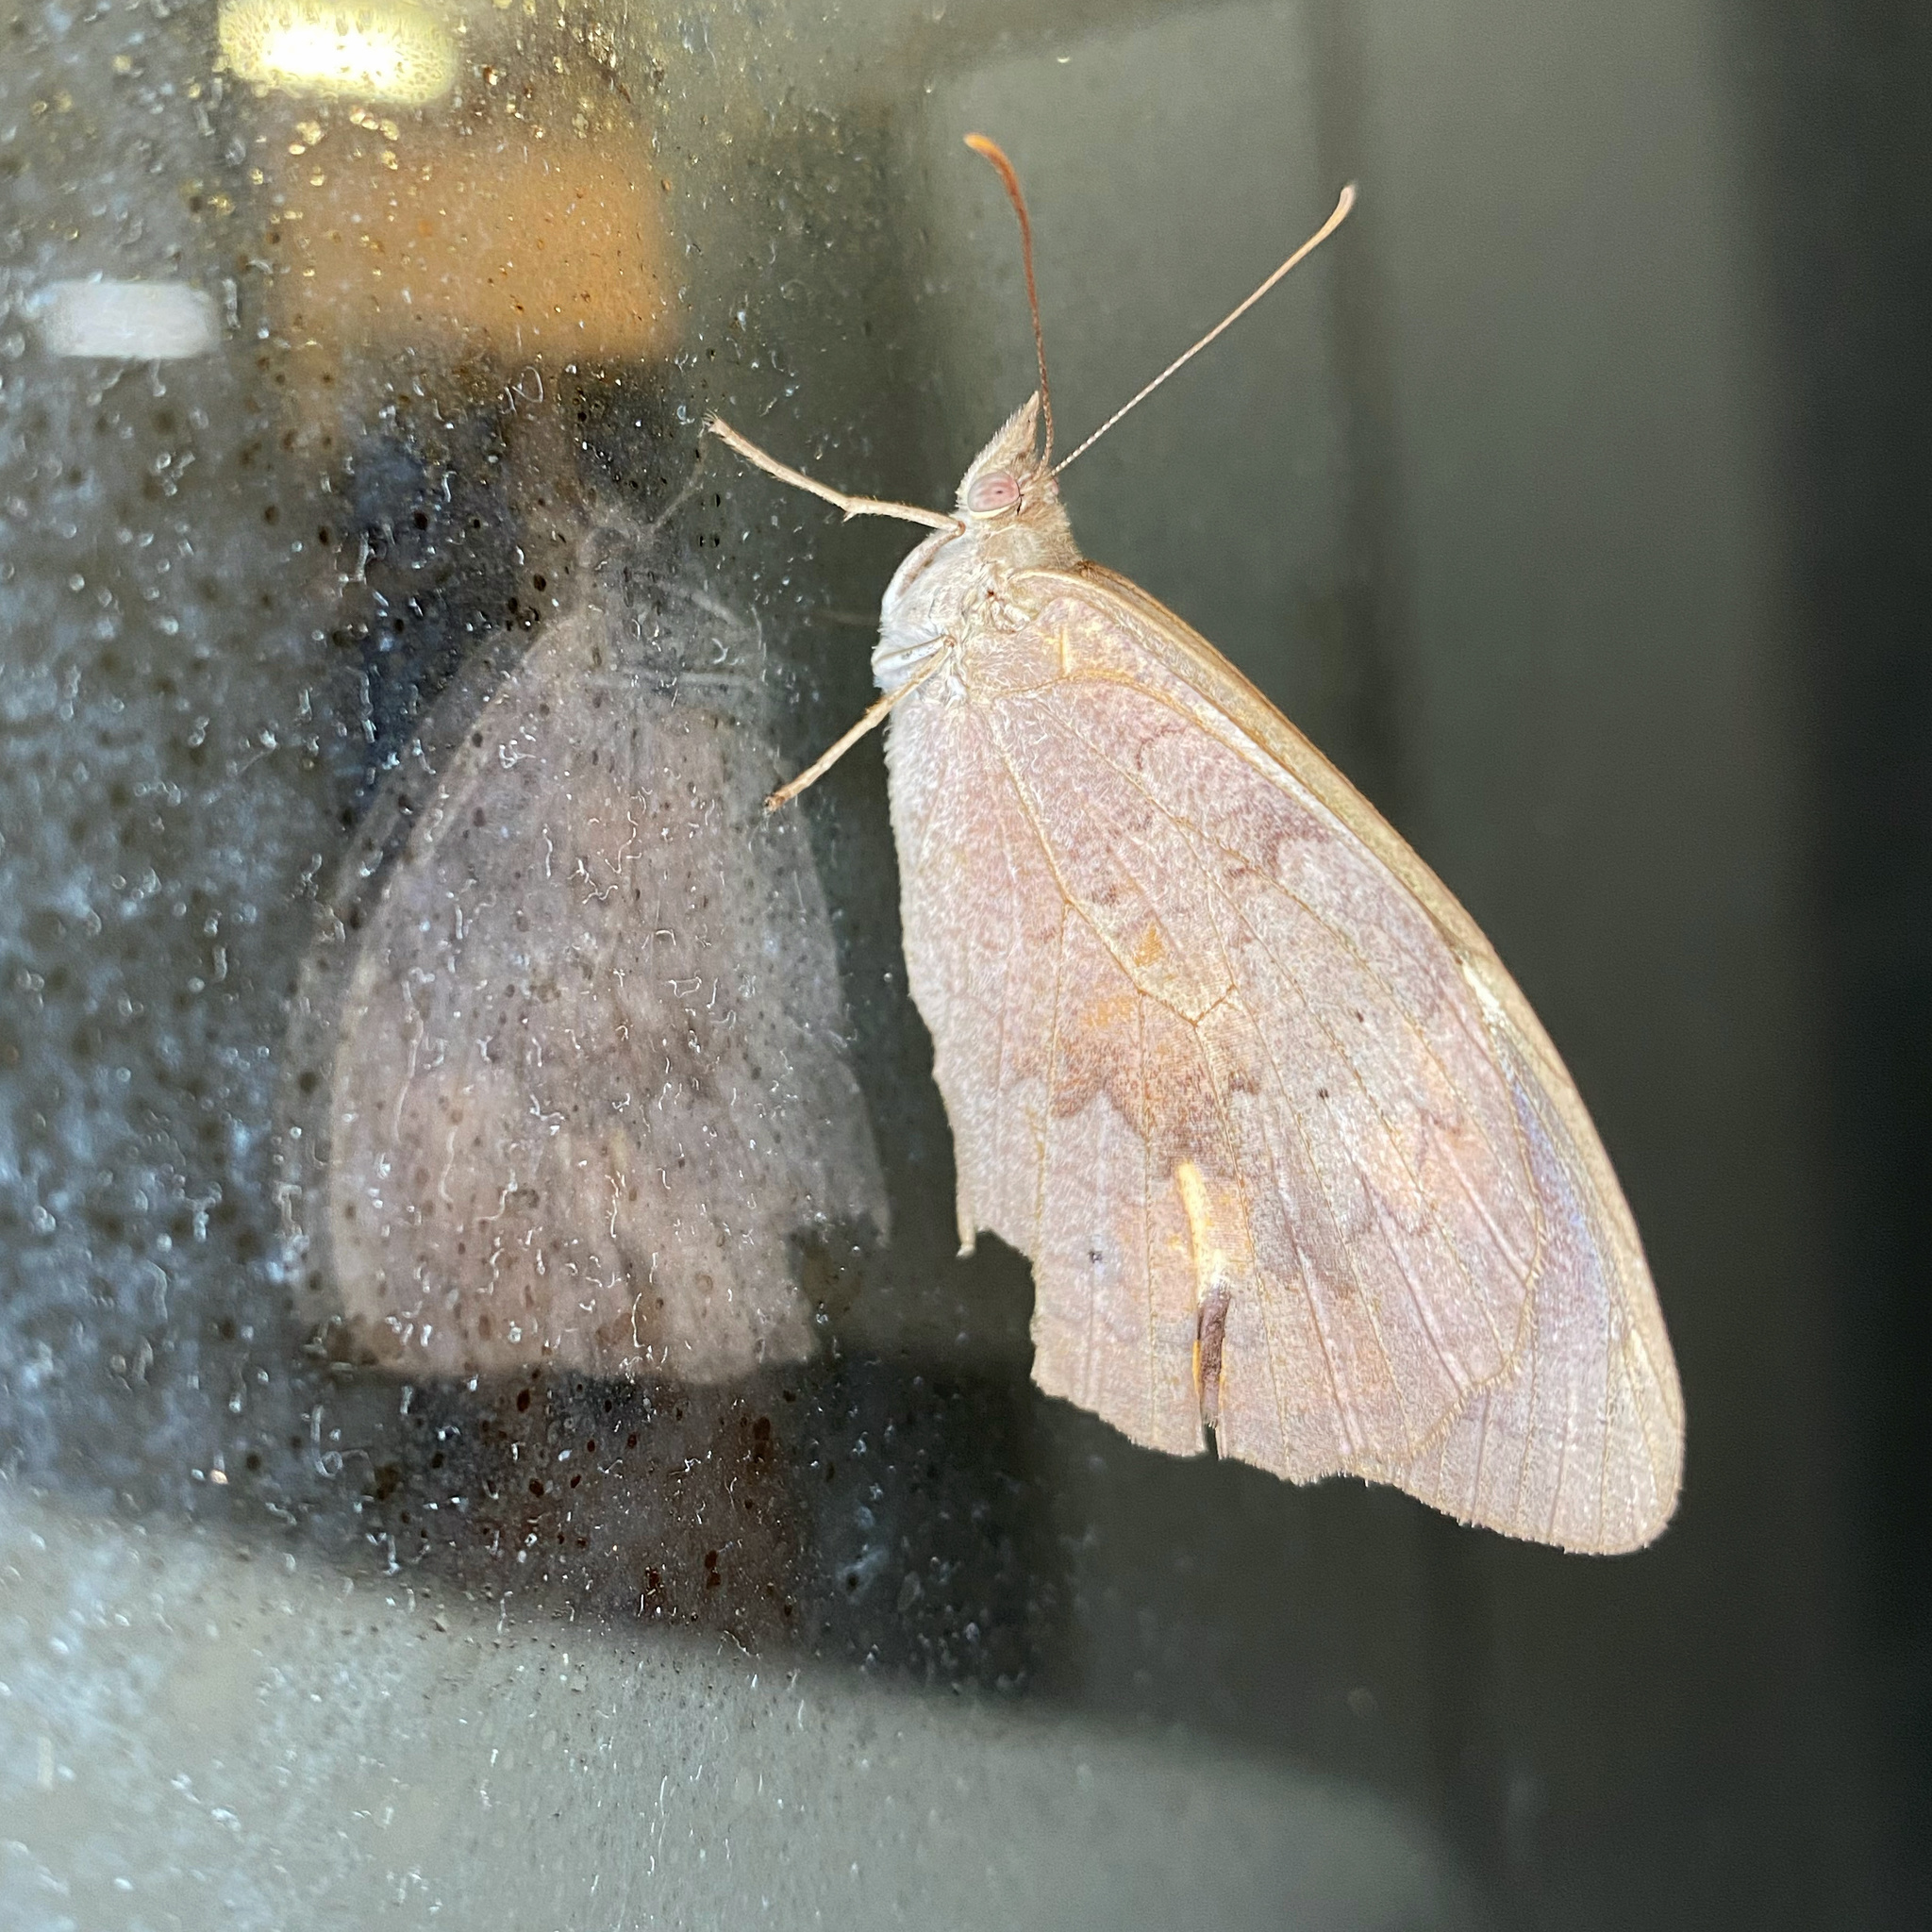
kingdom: Animalia
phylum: Arthropoda
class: Insecta
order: Lepidoptera
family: Nymphalidae
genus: Heteronympha
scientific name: Heteronympha merope
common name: Common brown
